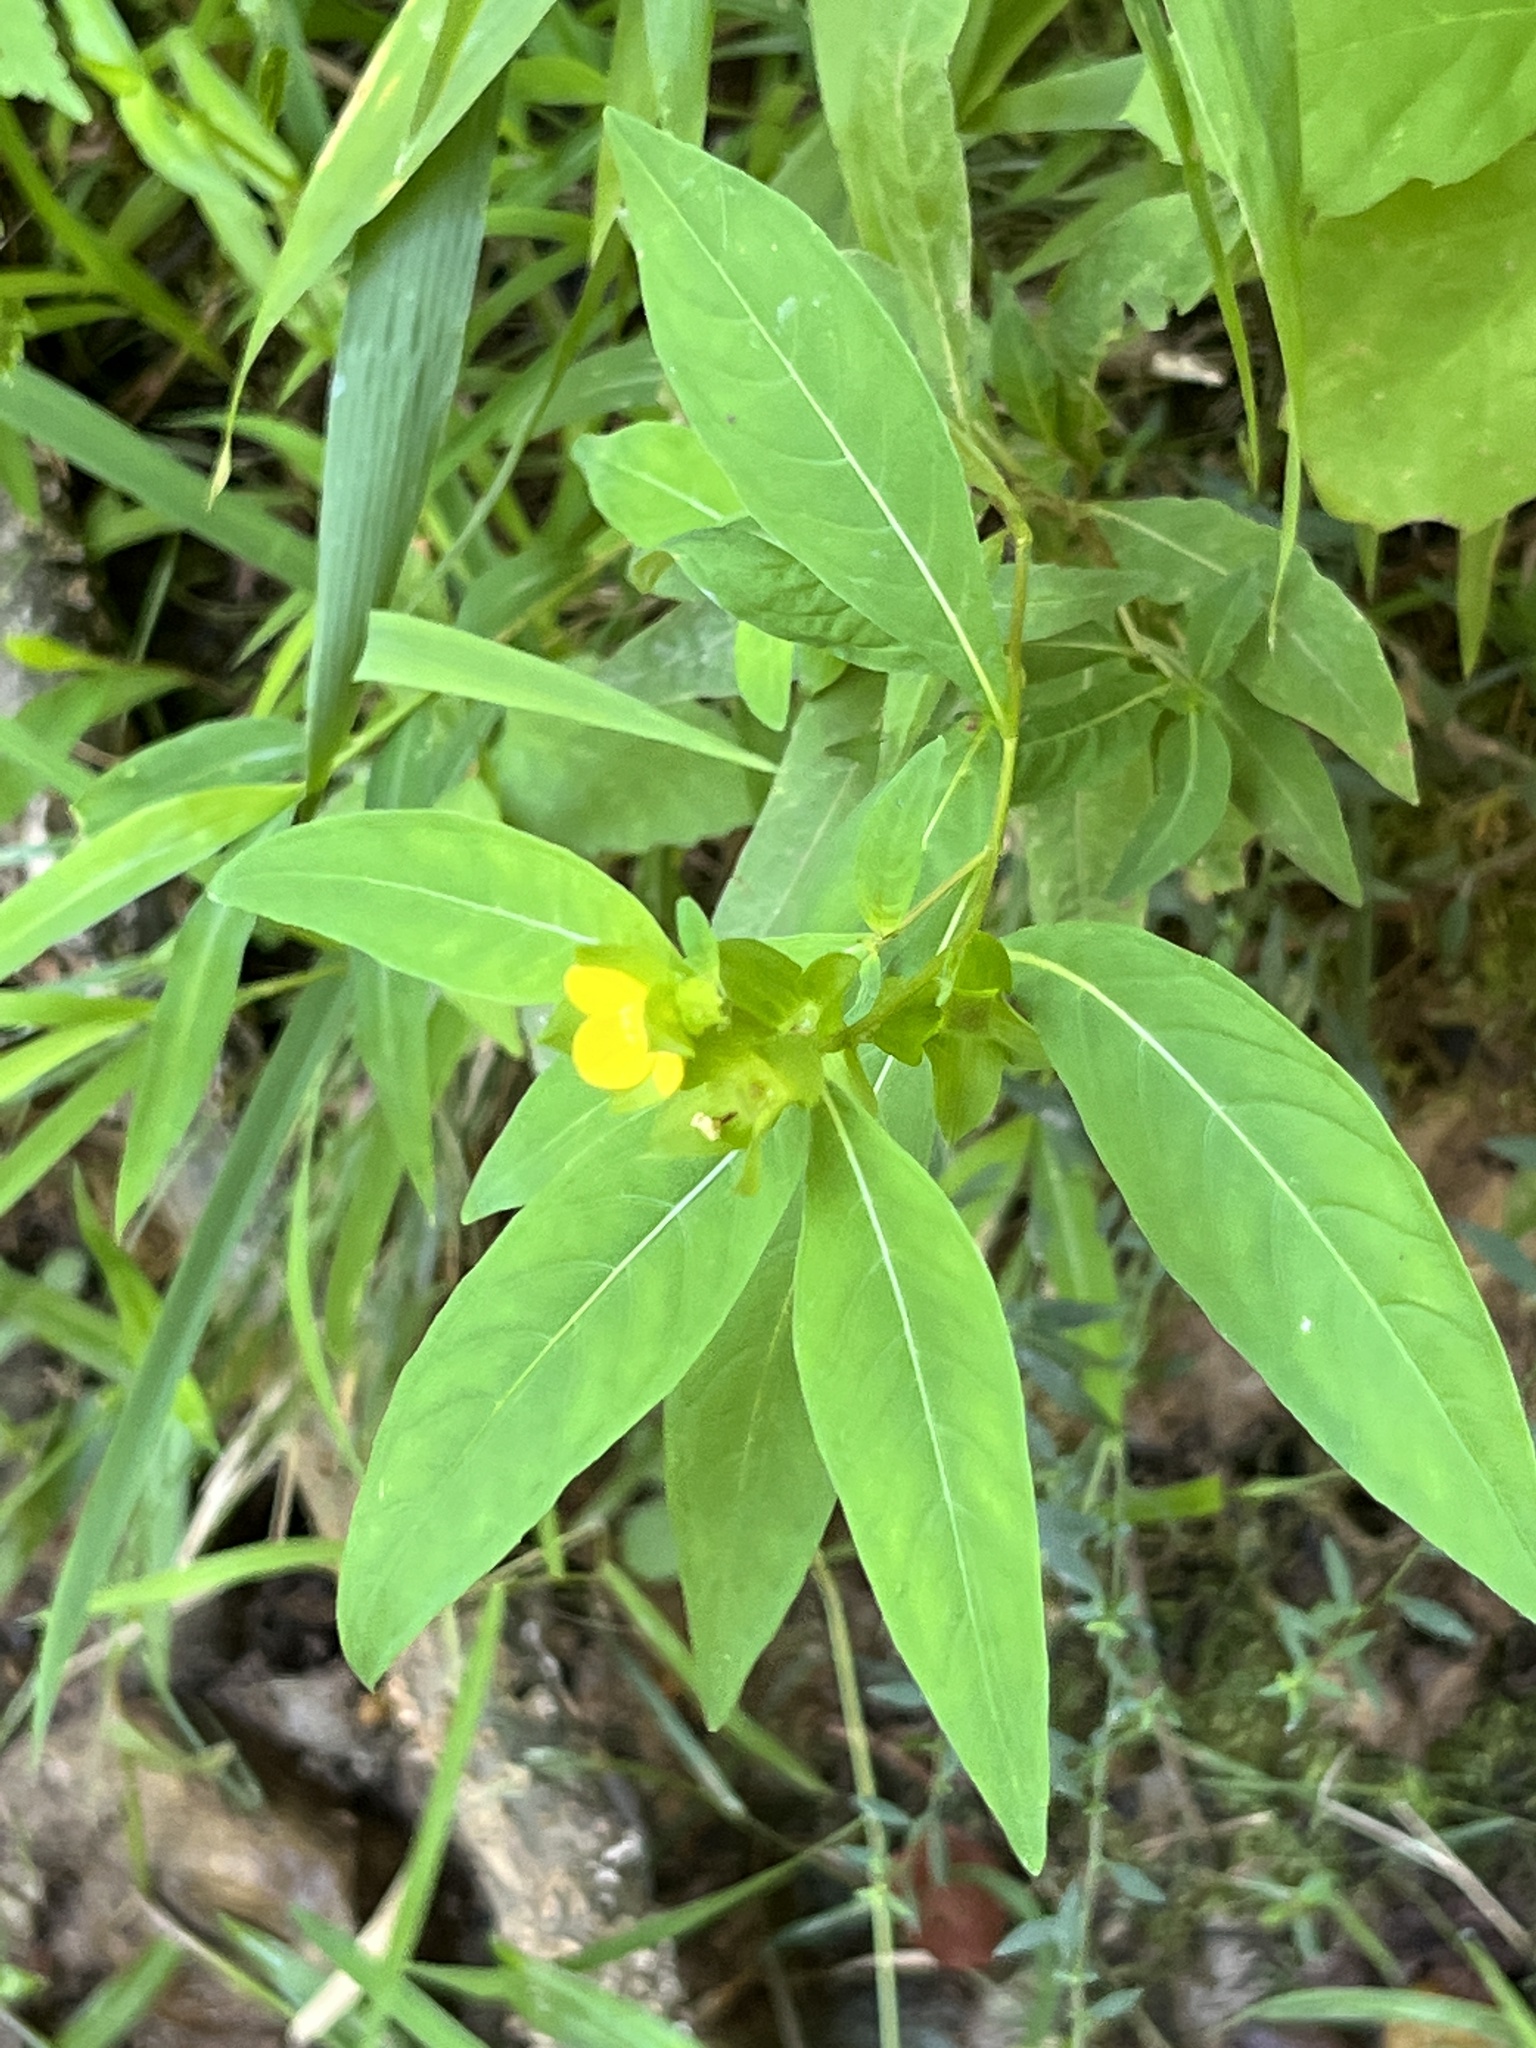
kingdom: Plantae
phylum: Tracheophyta
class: Magnoliopsida
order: Myrtales
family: Onagraceae
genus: Ludwigia
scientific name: Ludwigia alternifolia
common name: Rattlebox
